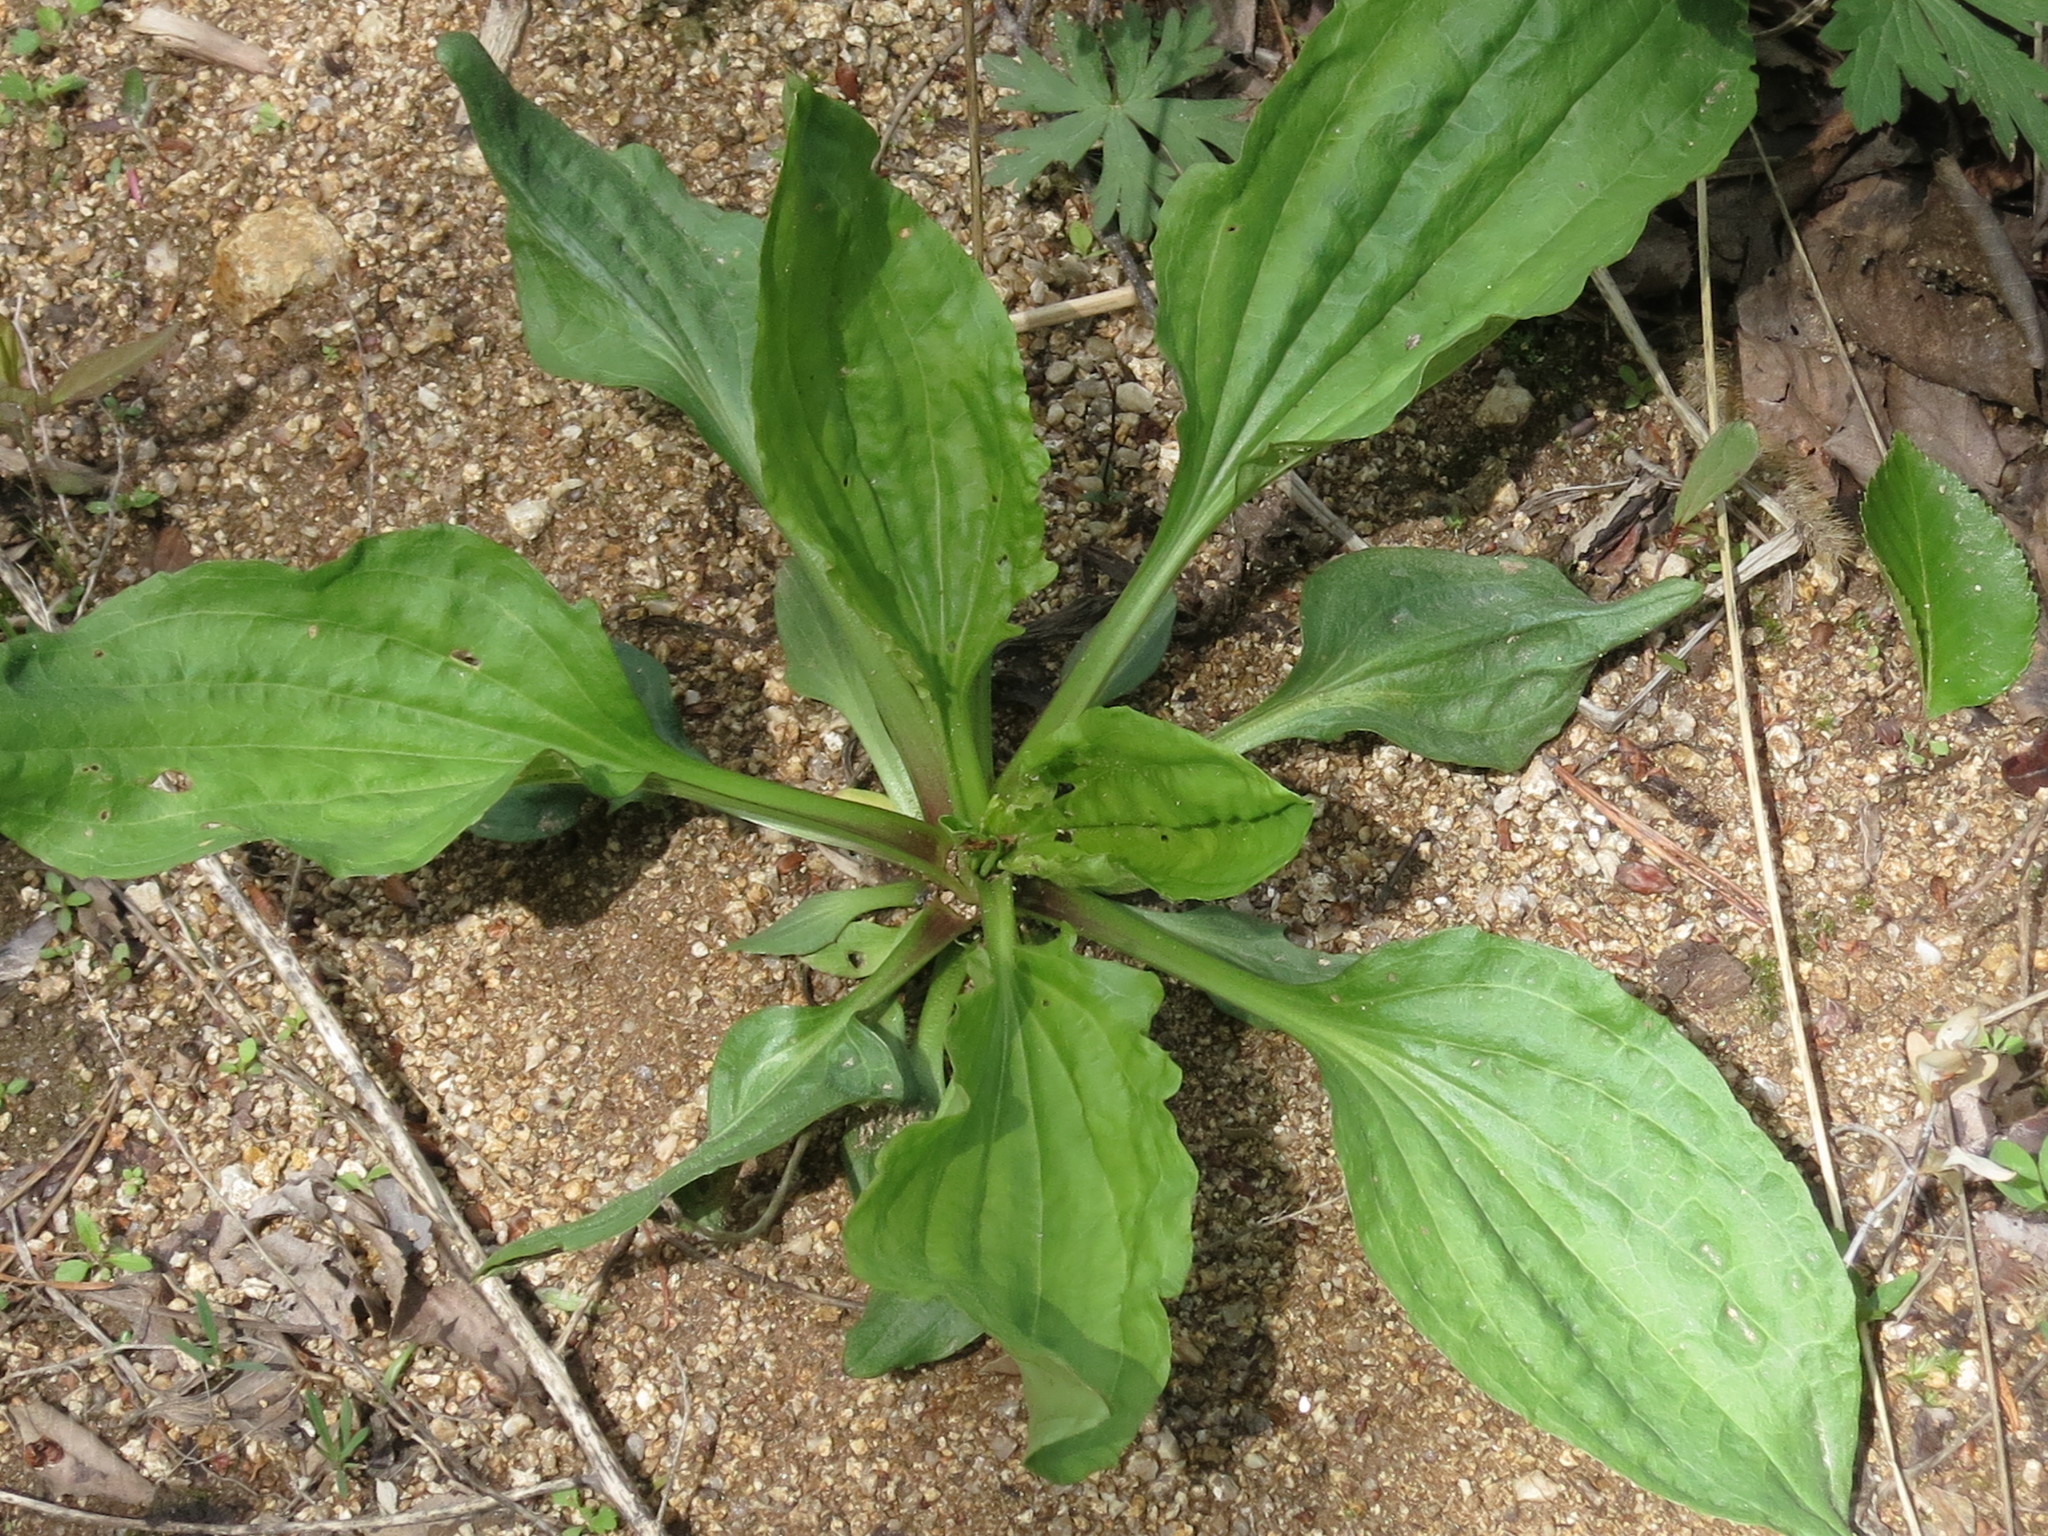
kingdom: Plantae
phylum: Tracheophyta
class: Magnoliopsida
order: Lamiales
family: Plantaginaceae
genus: Plantago
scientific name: Plantago asiatica
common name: Psyllium
